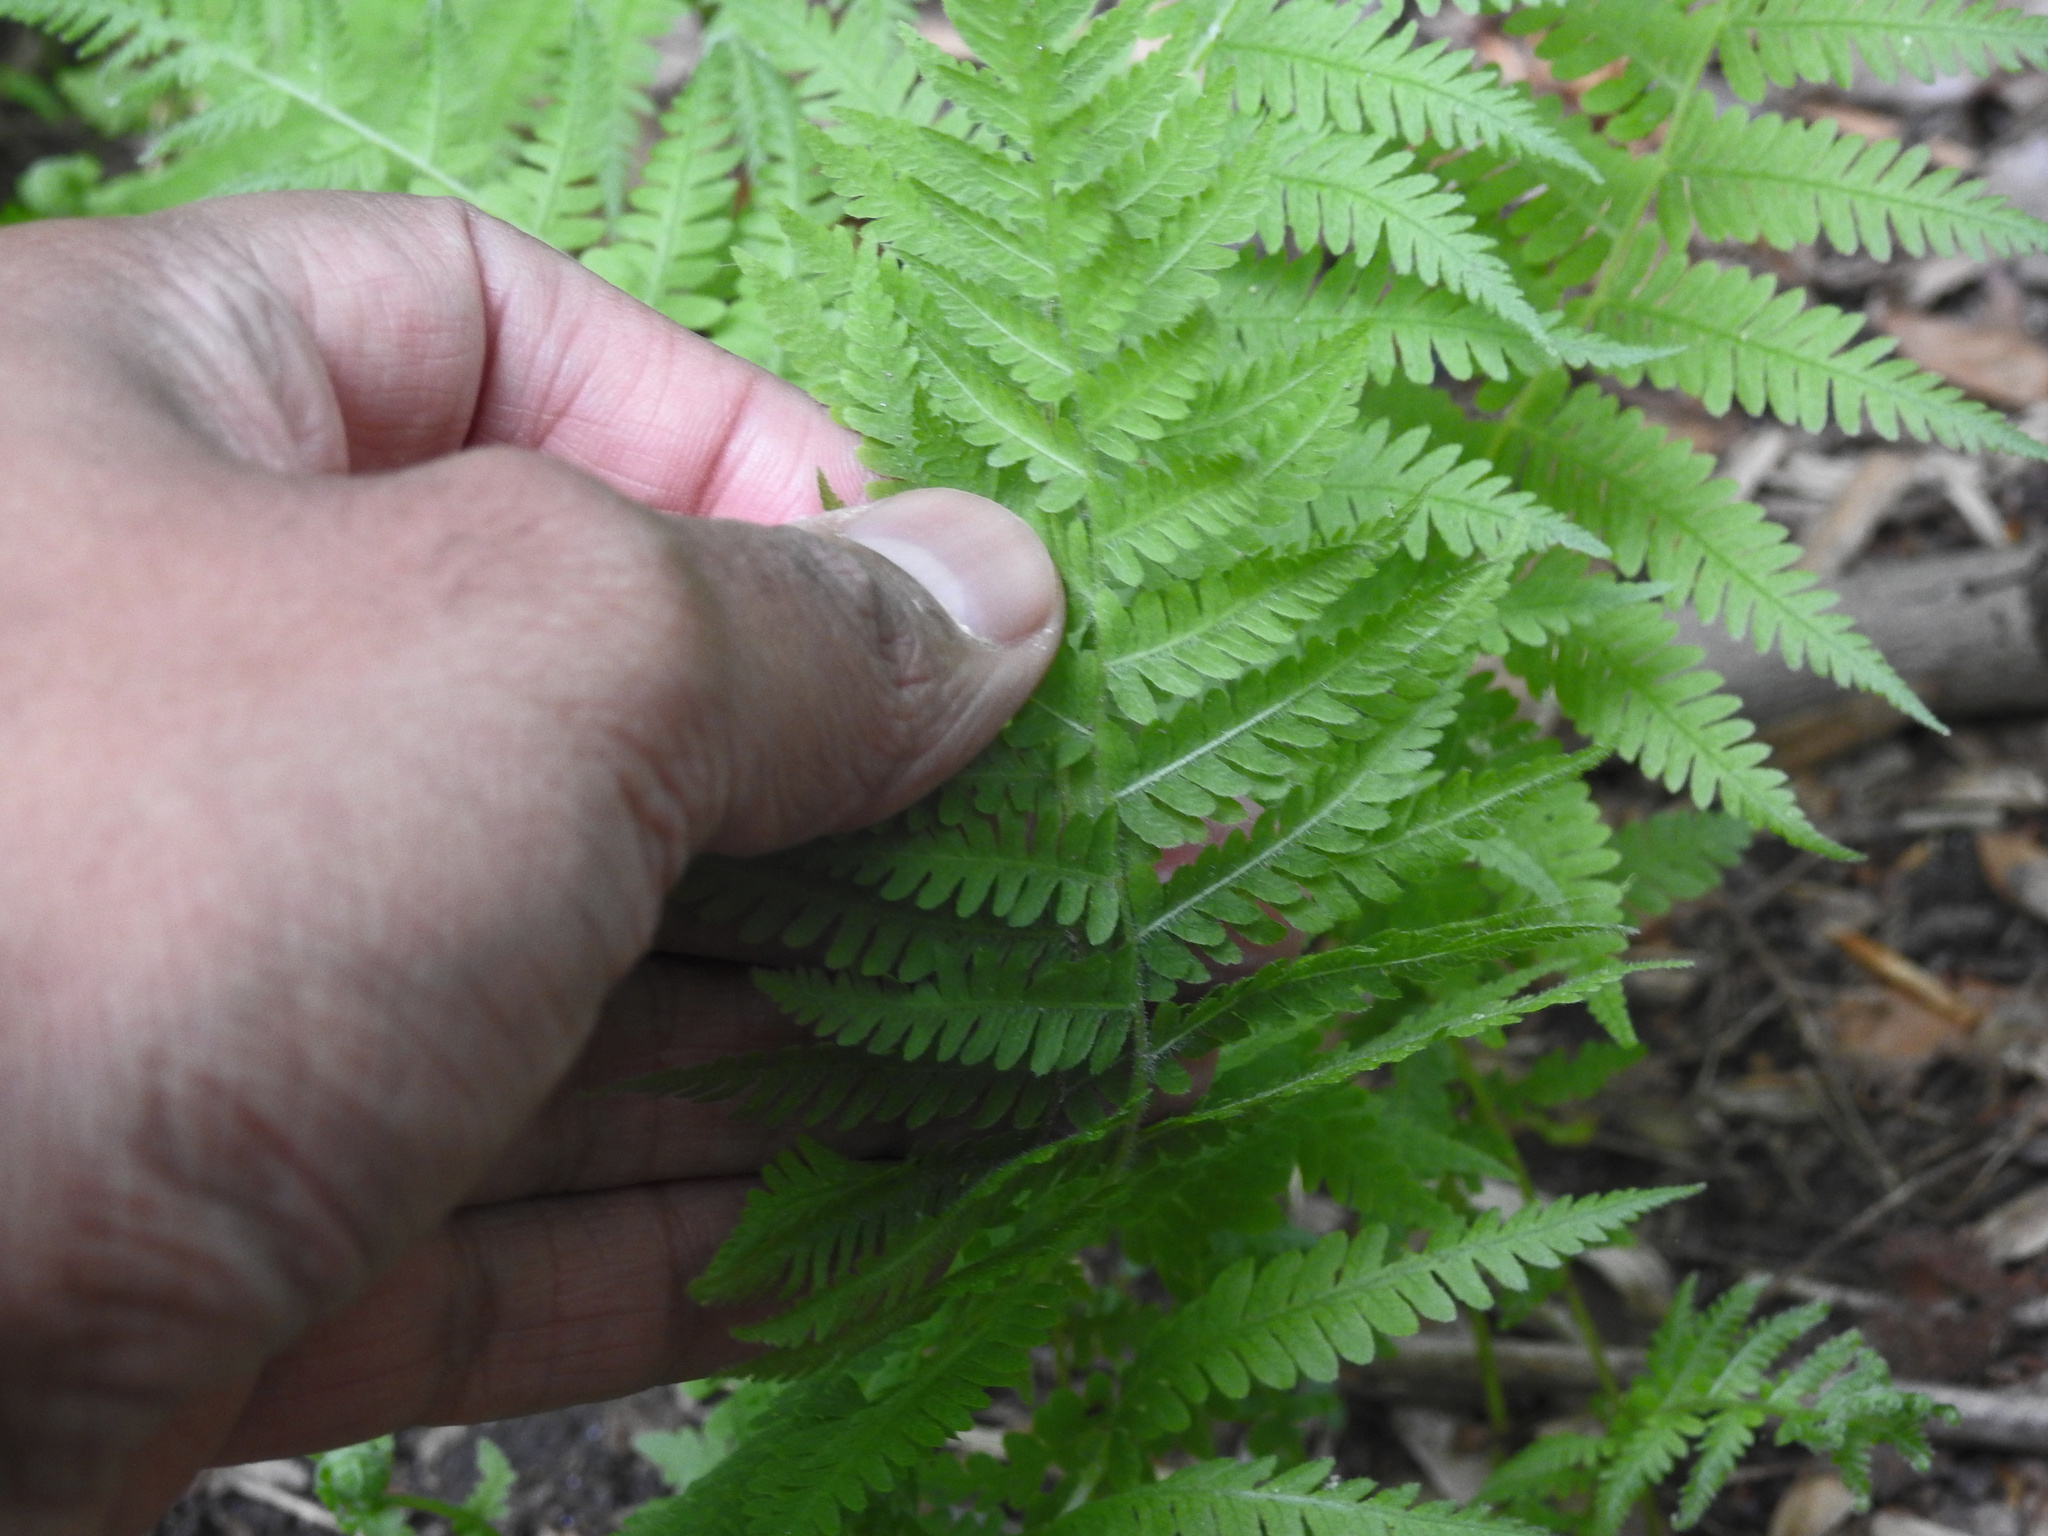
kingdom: Plantae
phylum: Tracheophyta
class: Polypodiopsida
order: Polypodiales
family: Thelypteridaceae
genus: Amauropelta
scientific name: Amauropelta noveboracensis
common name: New york fern
